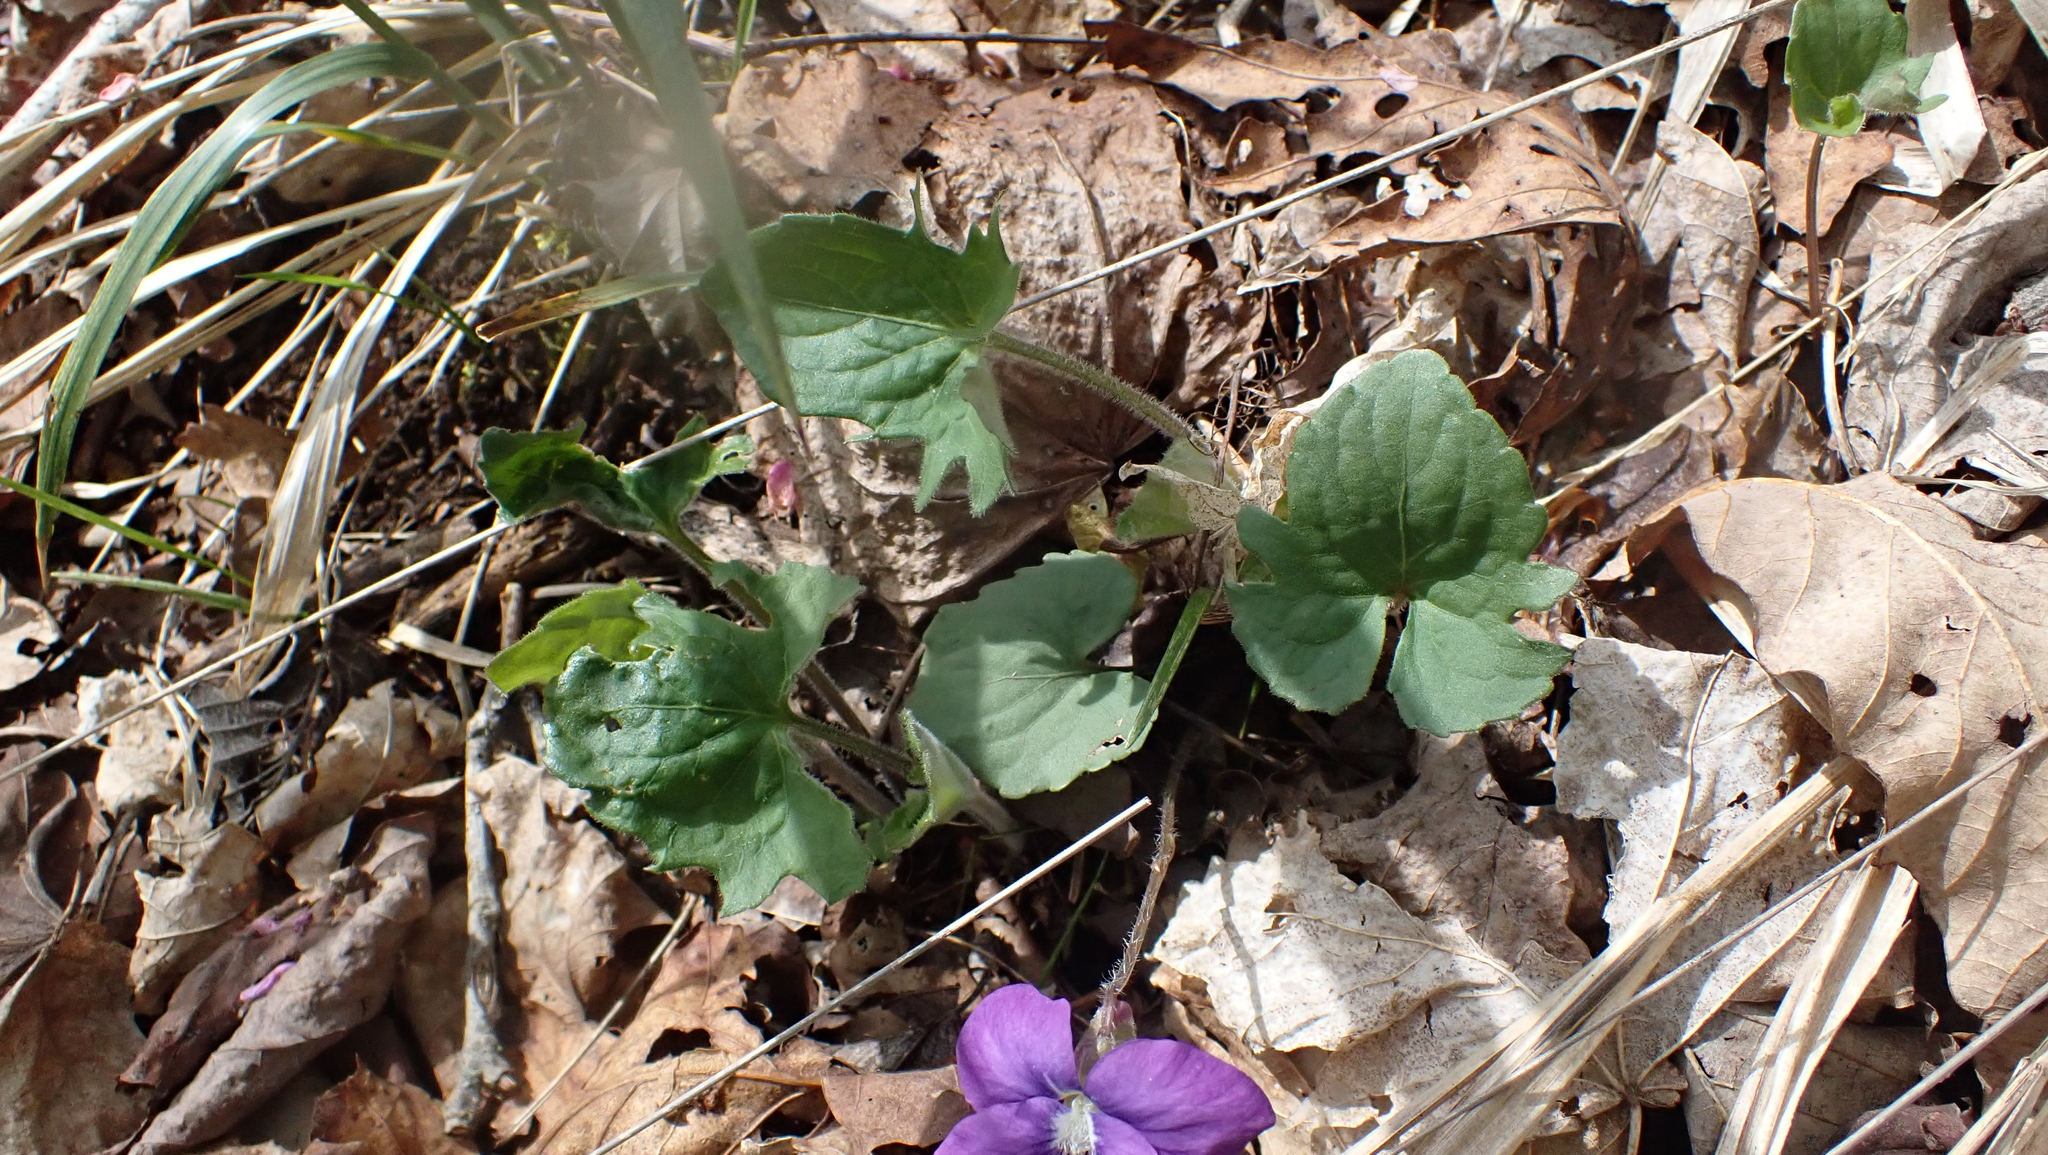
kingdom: Plantae
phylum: Tracheophyta
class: Magnoliopsida
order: Malpighiales
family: Violaceae
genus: Viola
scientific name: Viola palmata
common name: Early blue violet
